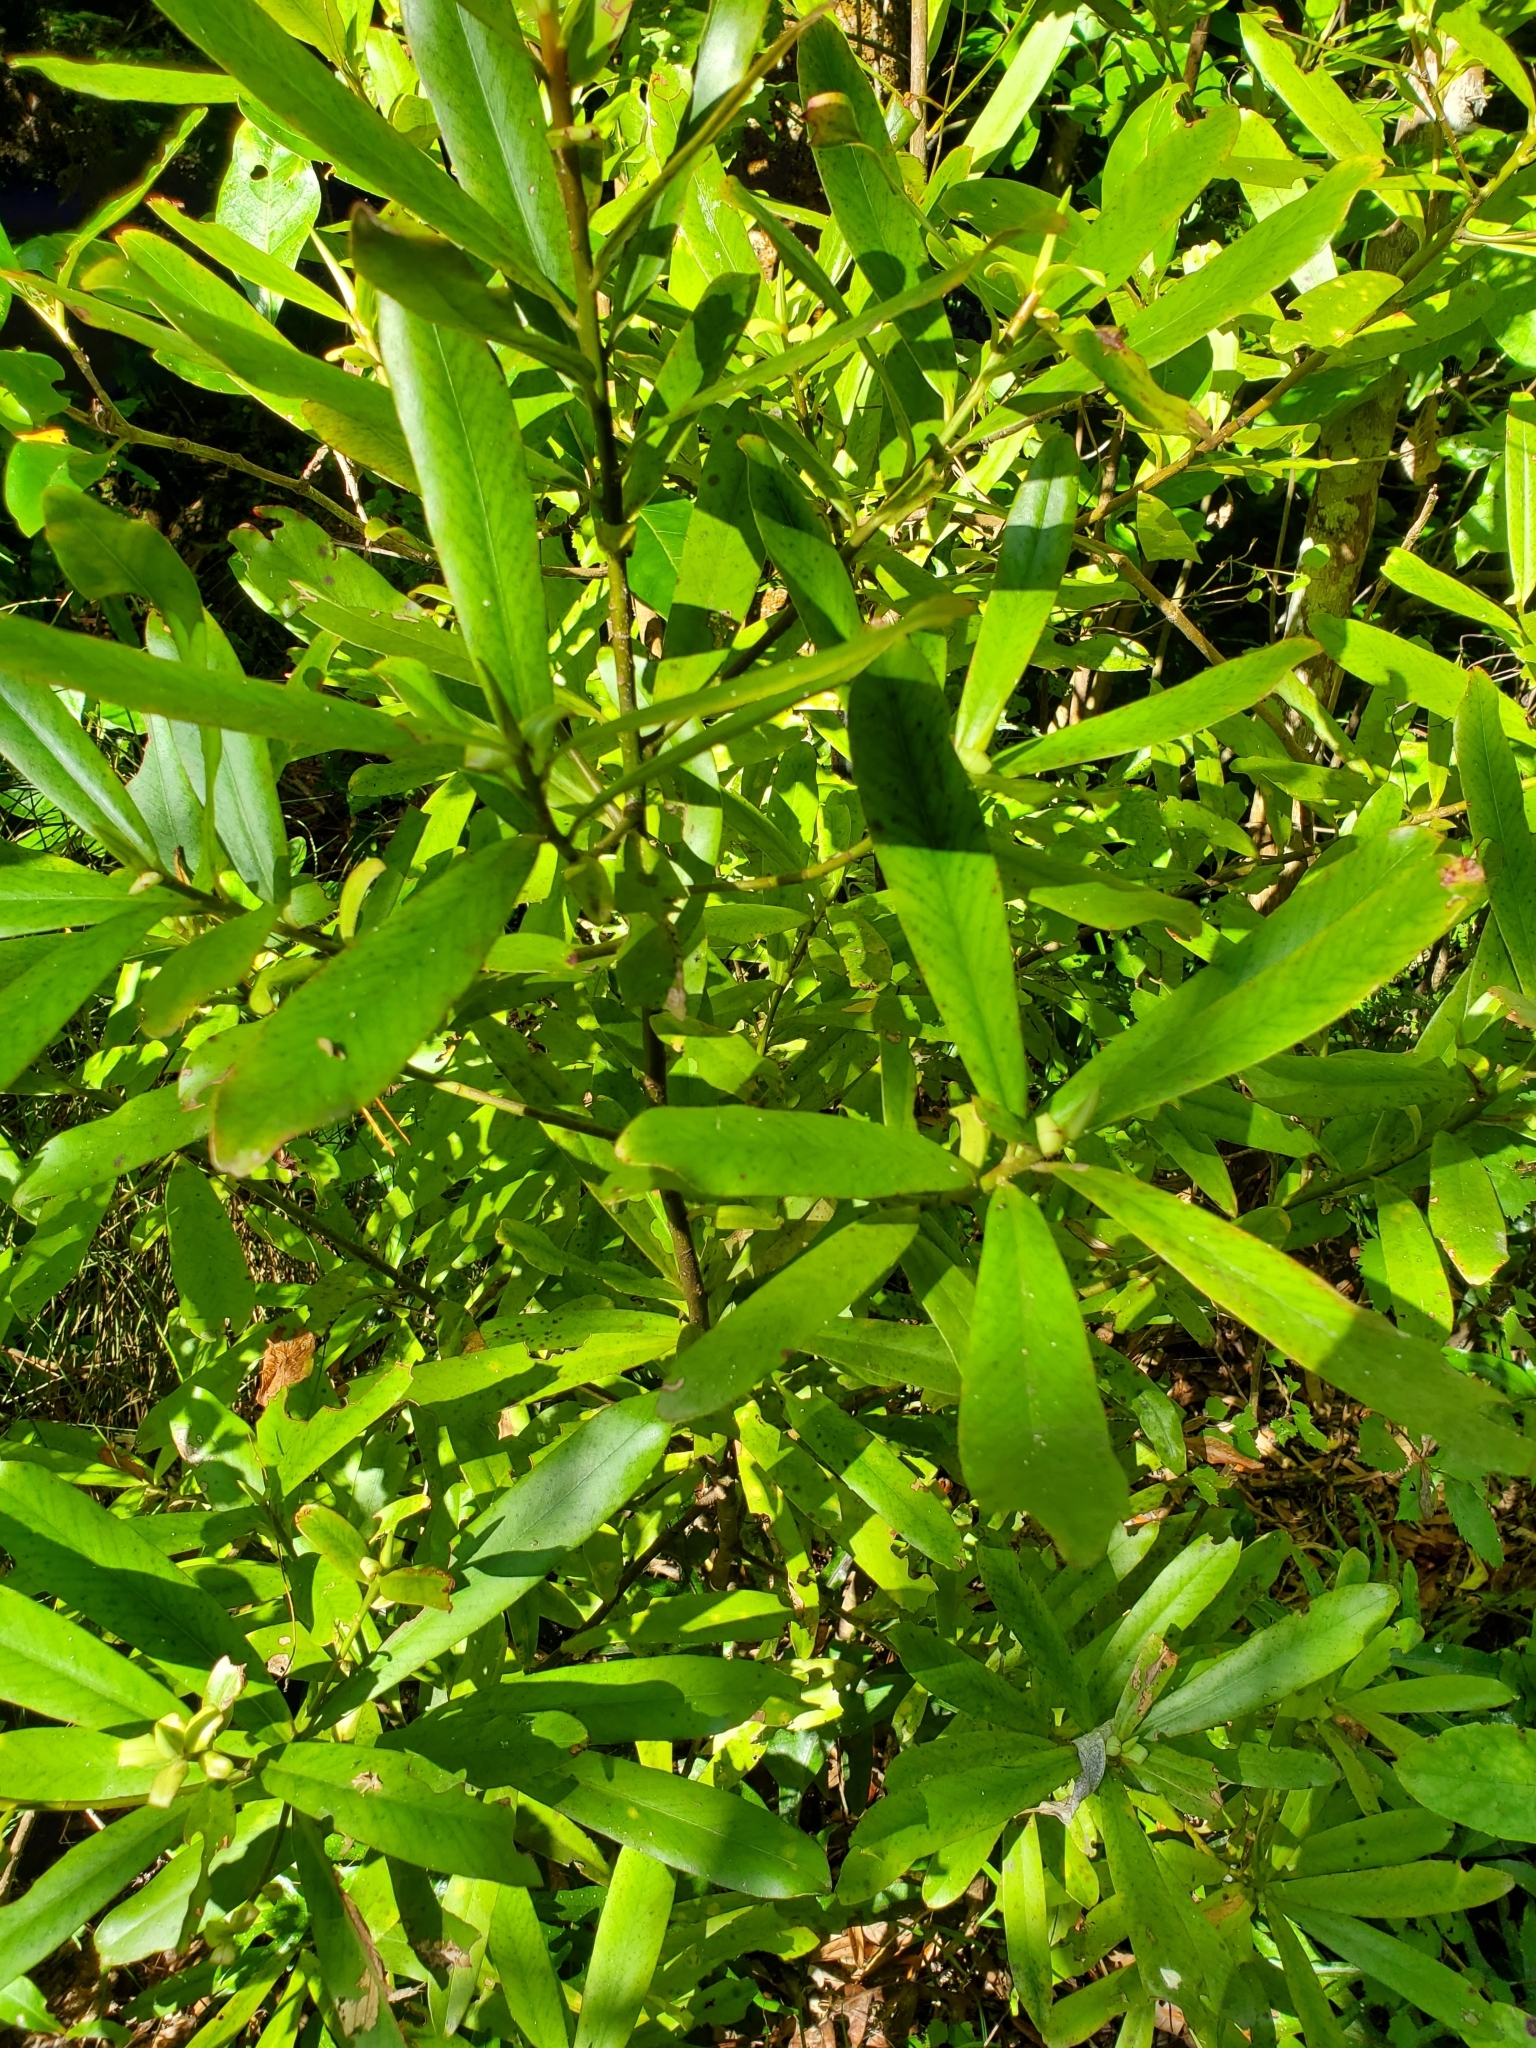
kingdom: Plantae
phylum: Tracheophyta
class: Magnoliopsida
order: Ericales
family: Primulaceae
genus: Myrsine
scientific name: Myrsine salicina
